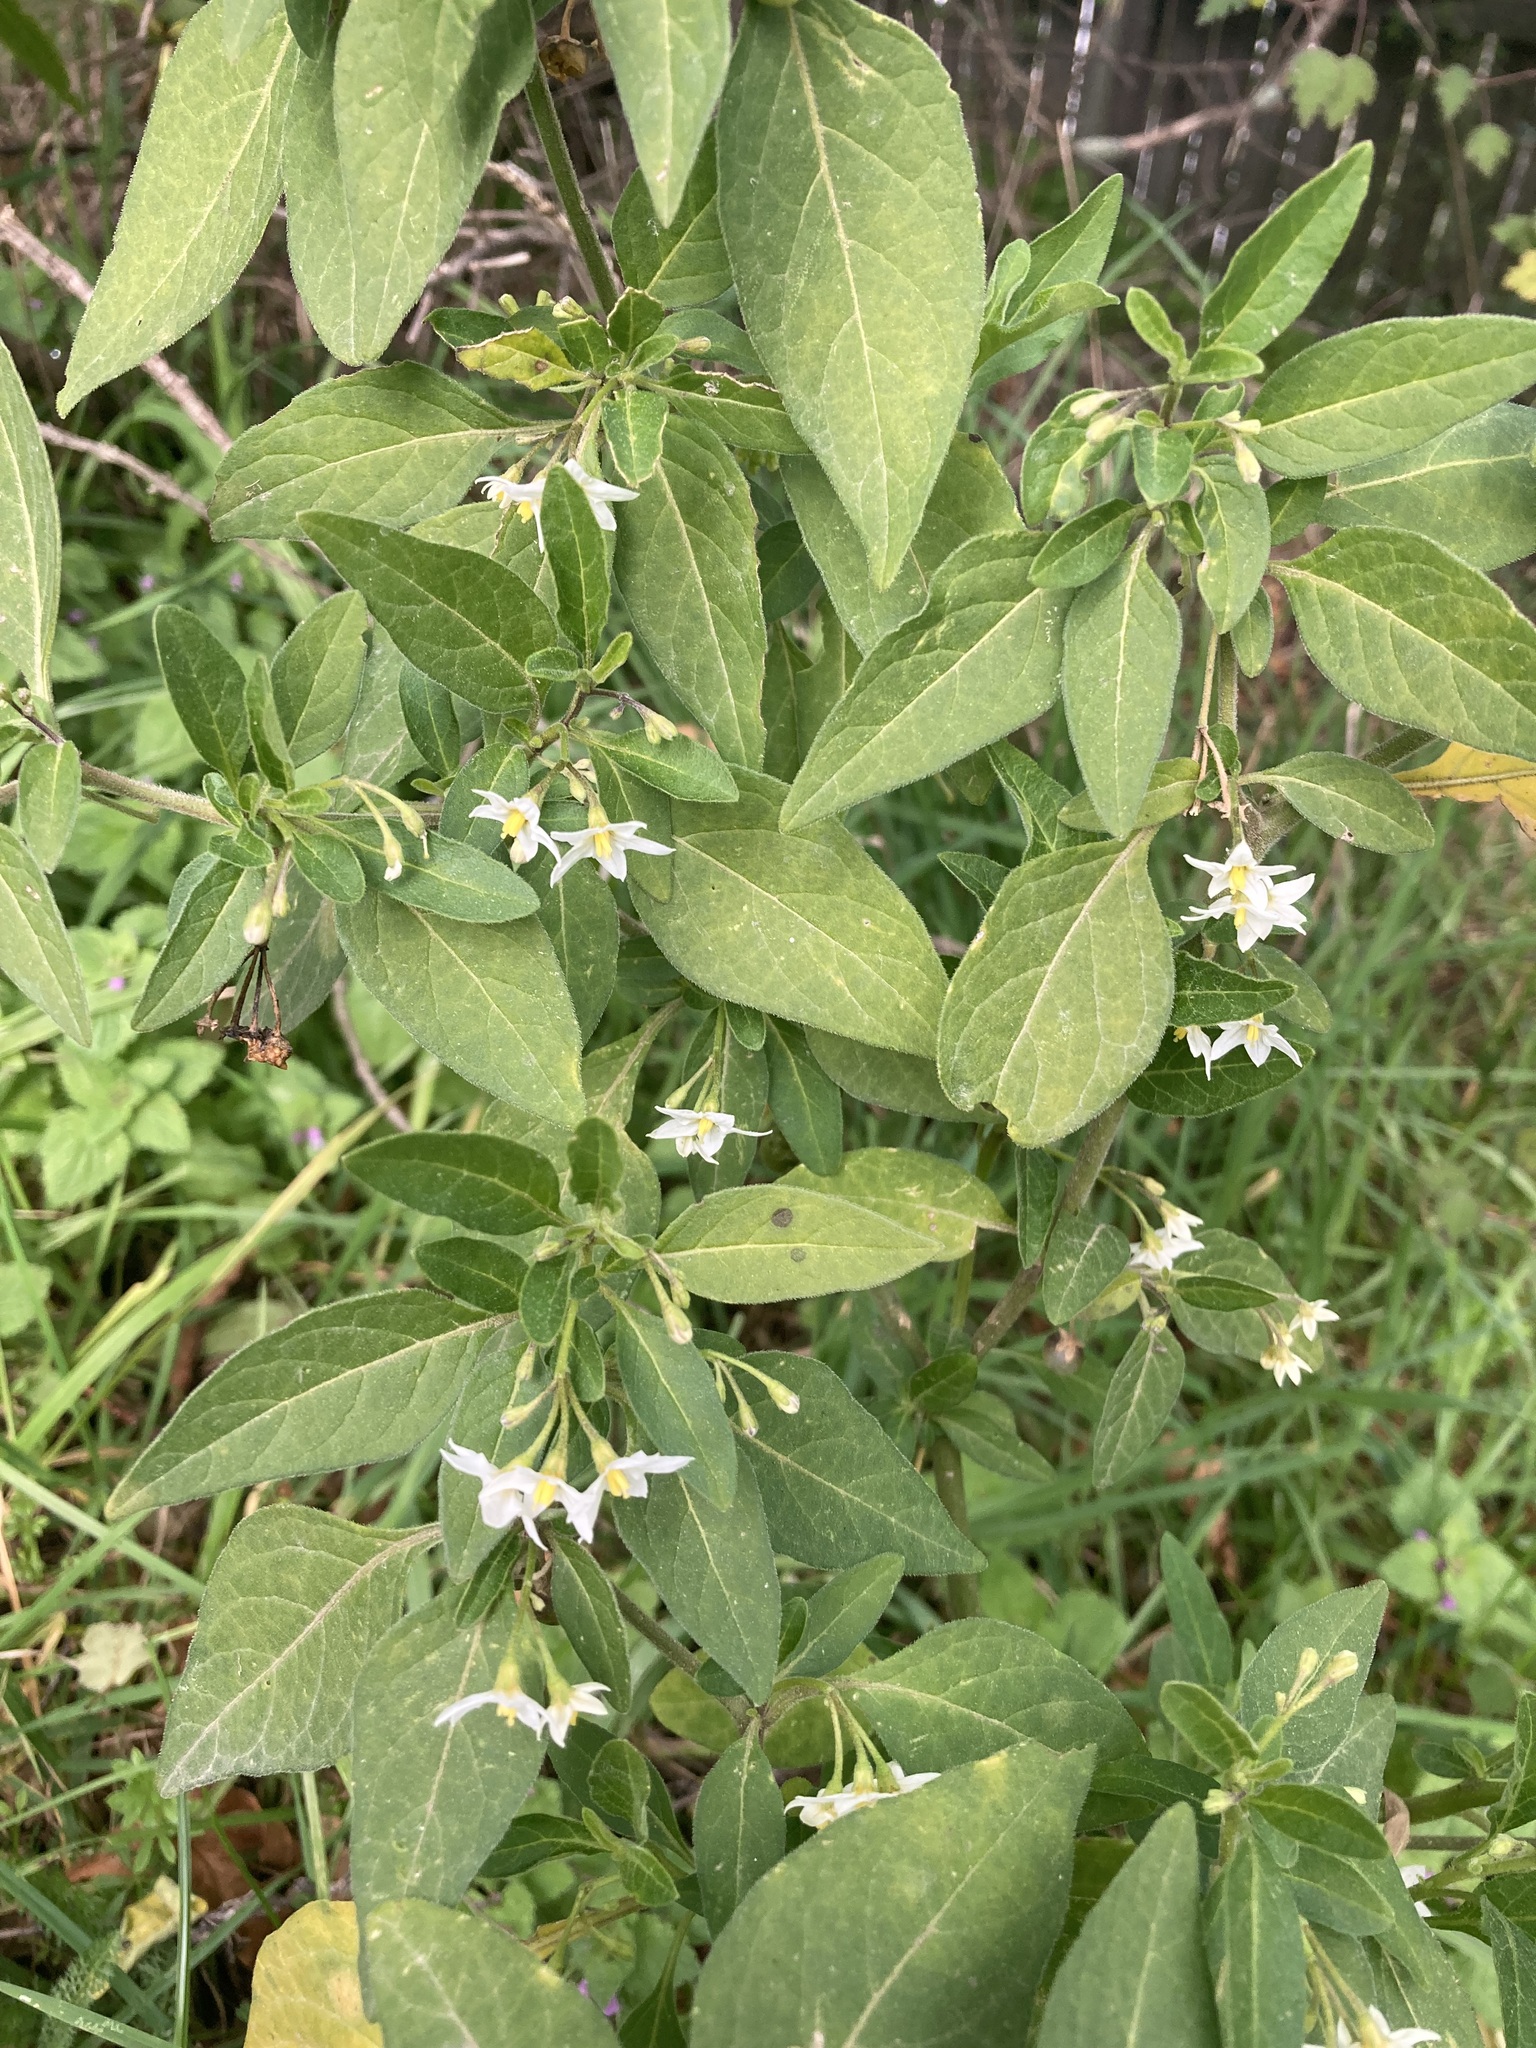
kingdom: Plantae
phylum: Tracheophyta
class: Magnoliopsida
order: Solanales
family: Solanaceae
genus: Solanum
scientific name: Solanum chenopodioides
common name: Tall nightshade
